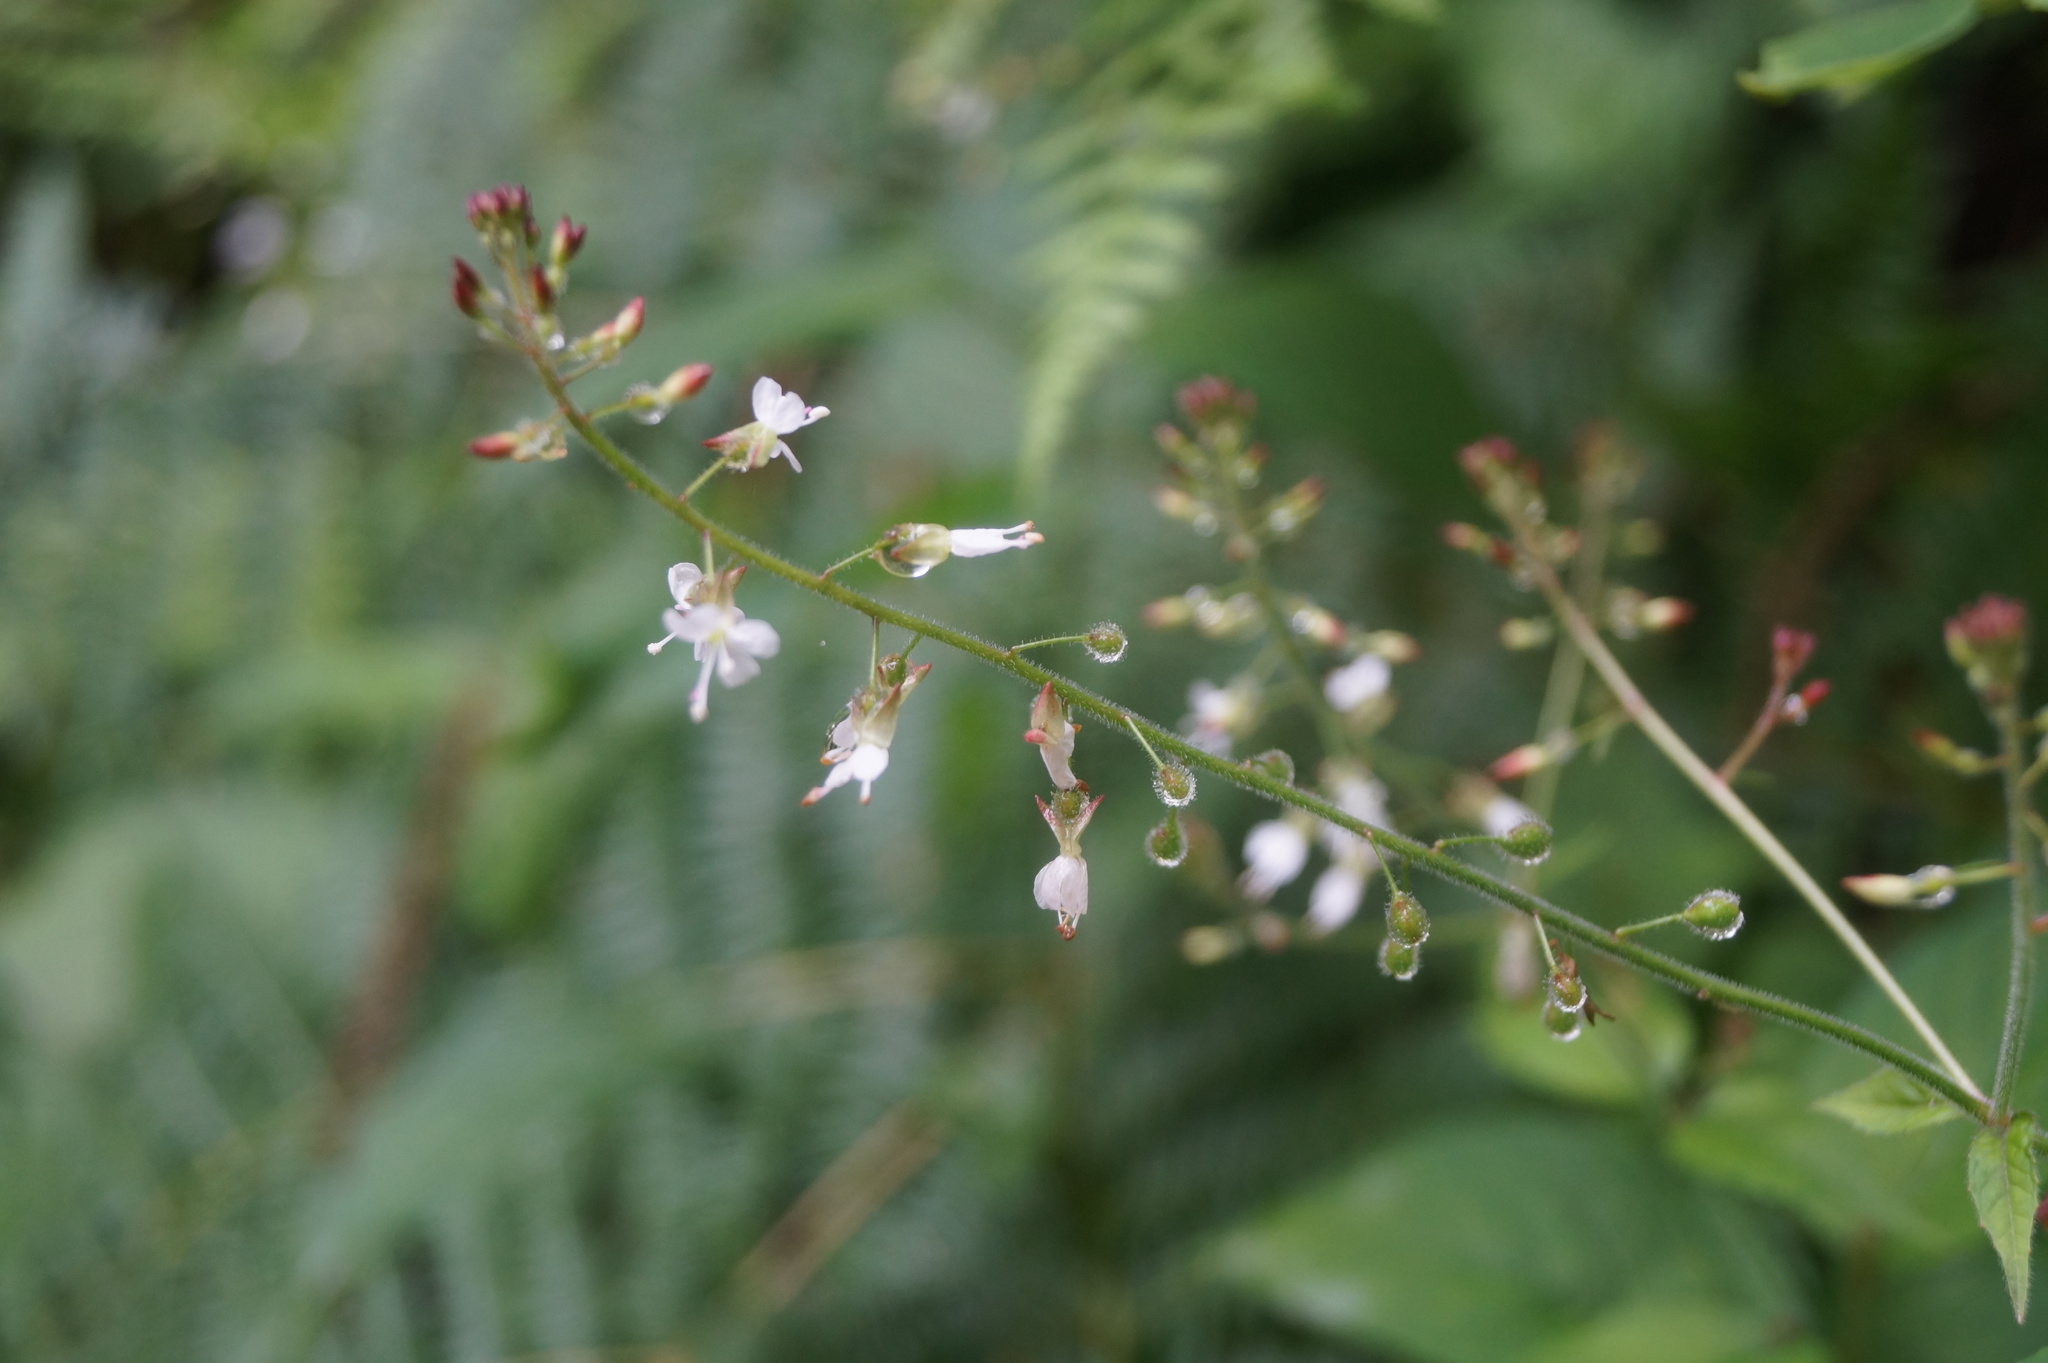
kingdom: Plantae
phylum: Tracheophyta
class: Magnoliopsida
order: Myrtales
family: Onagraceae
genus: Circaea
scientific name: Circaea lutetiana
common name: Enchanter's-nightshade
